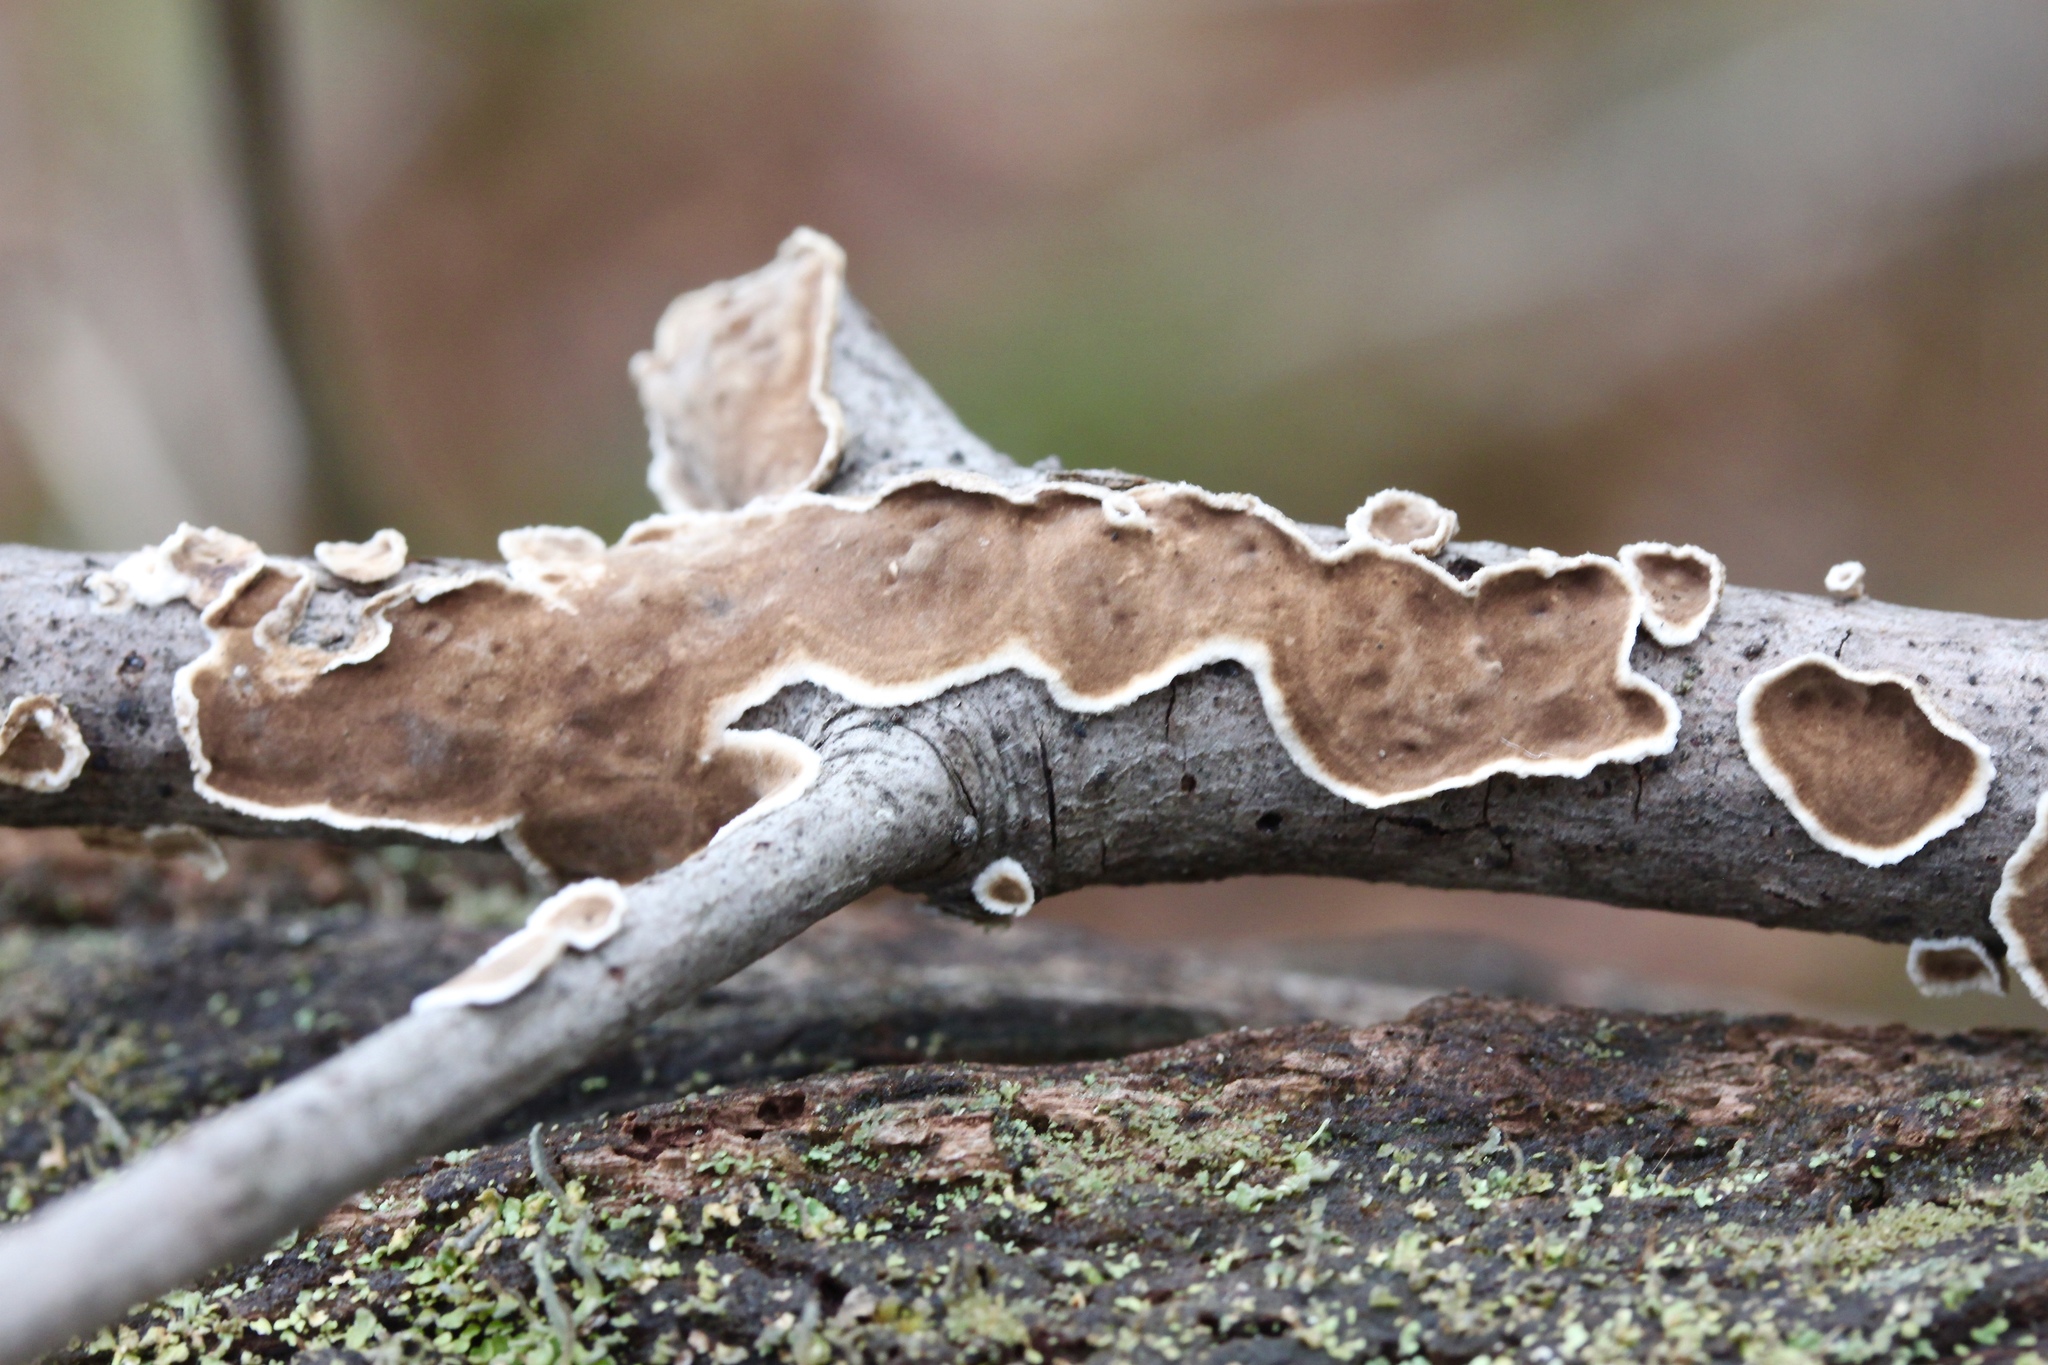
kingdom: Fungi
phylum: Basidiomycota
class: Agaricomycetes
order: Russulales
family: Peniophoraceae
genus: Peniophora
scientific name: Peniophora albobadia
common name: Giraffe spots
